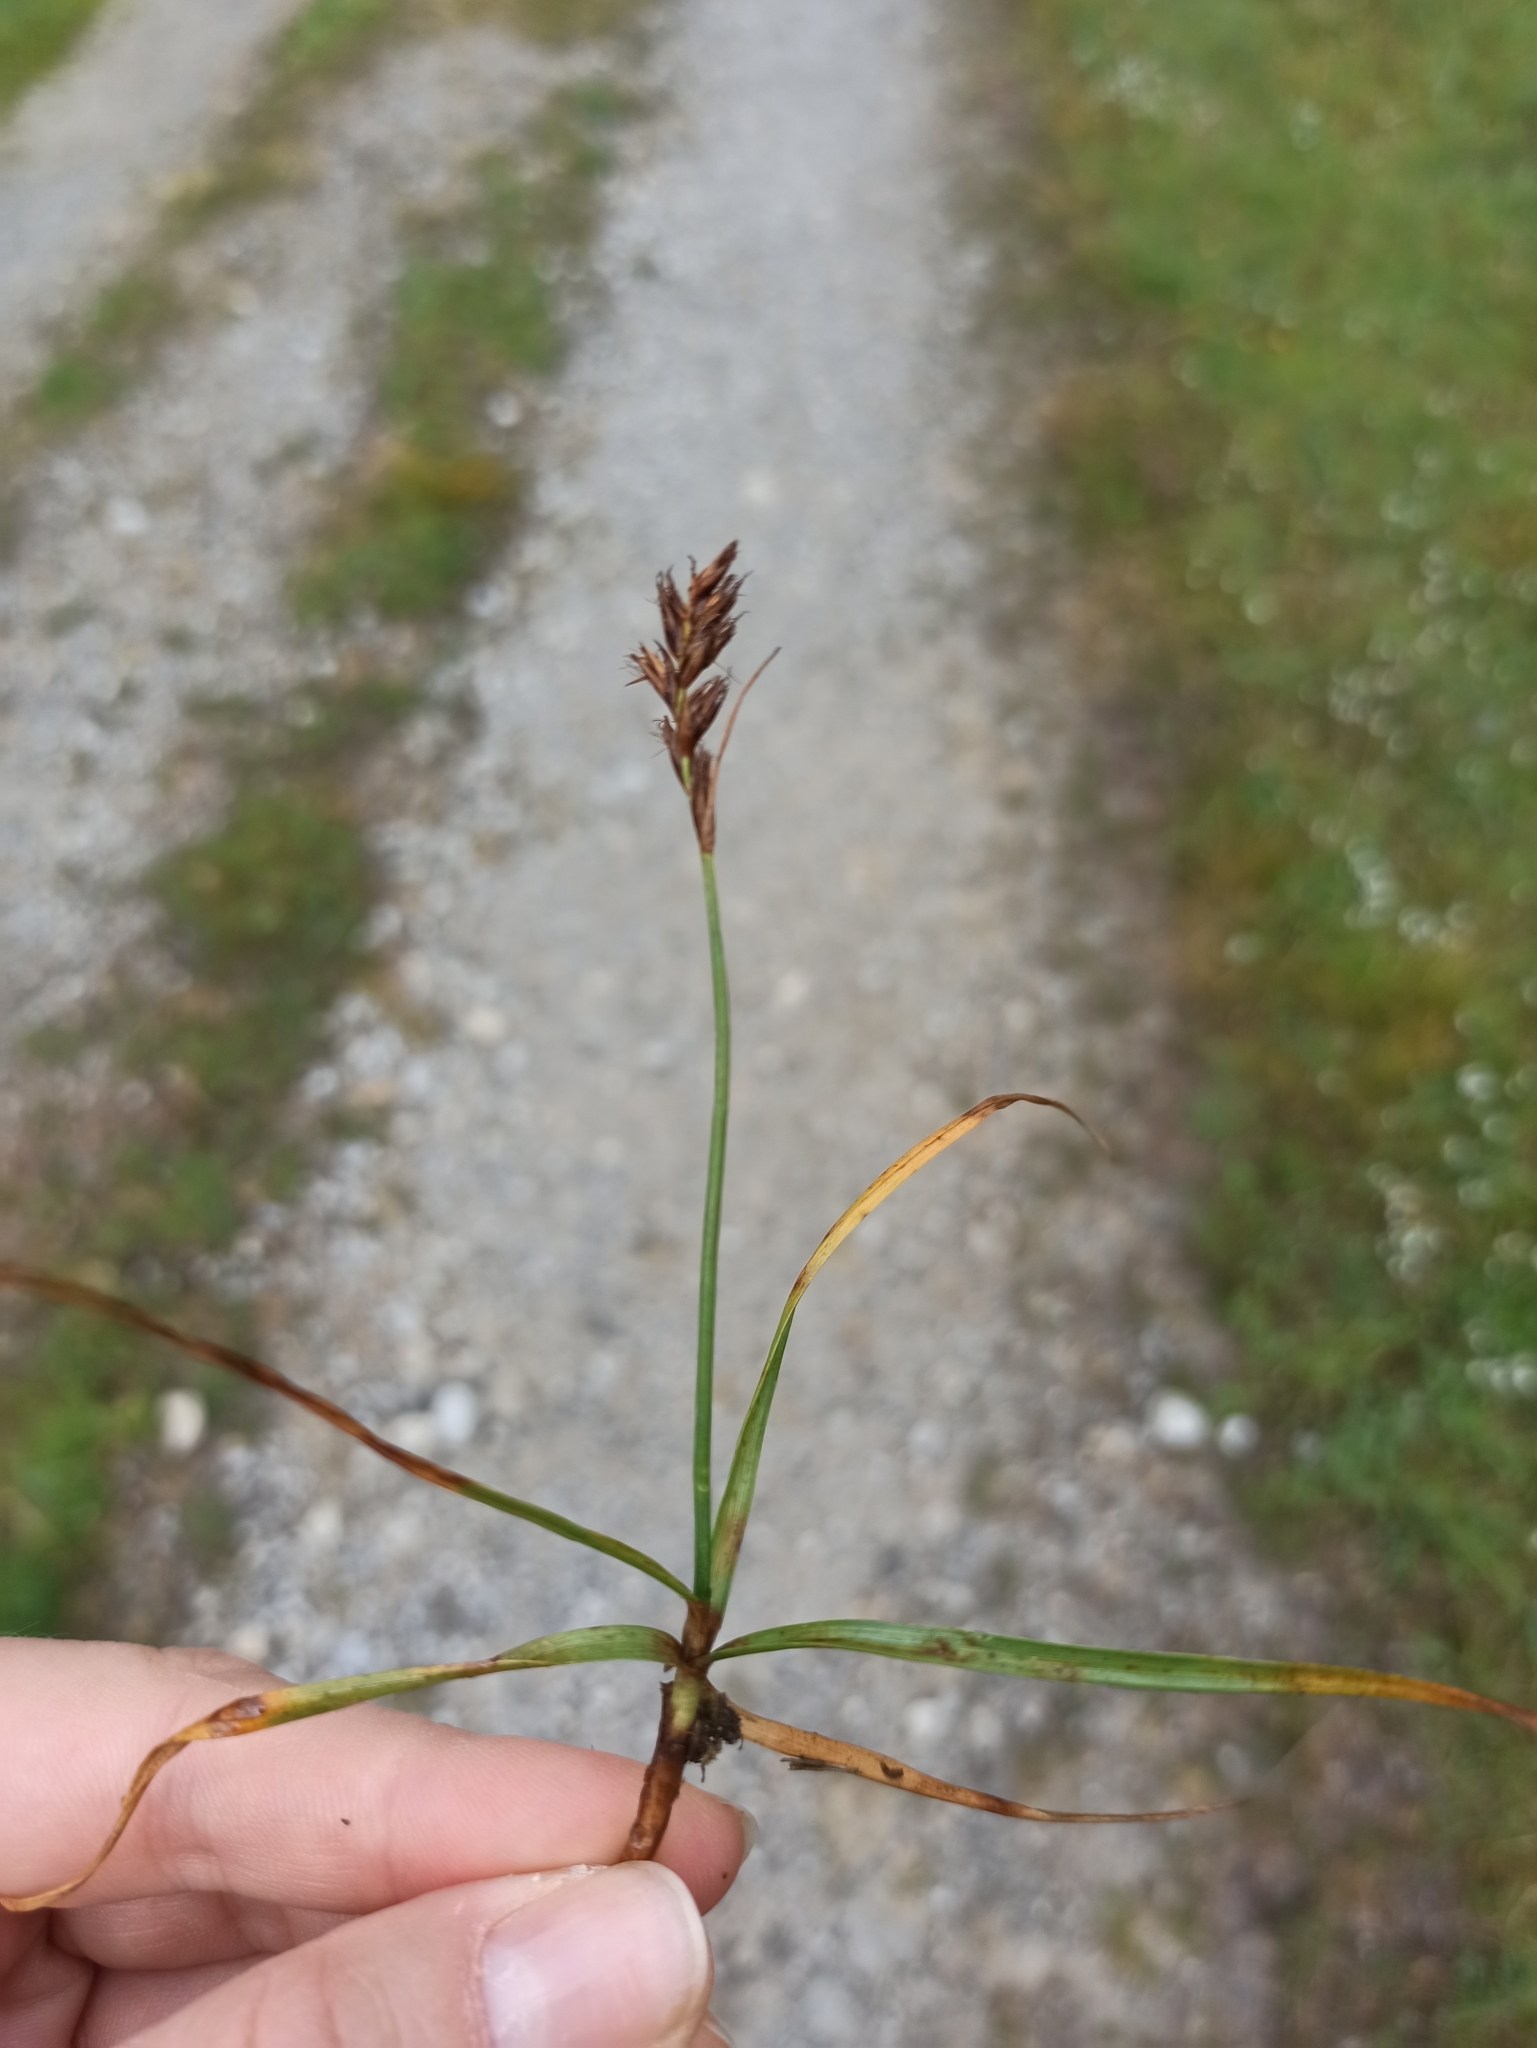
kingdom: Plantae
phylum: Tracheophyta
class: Liliopsida
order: Poales
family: Cyperaceae
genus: Blysmus
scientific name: Blysmus compressus
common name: Flat-sedge
